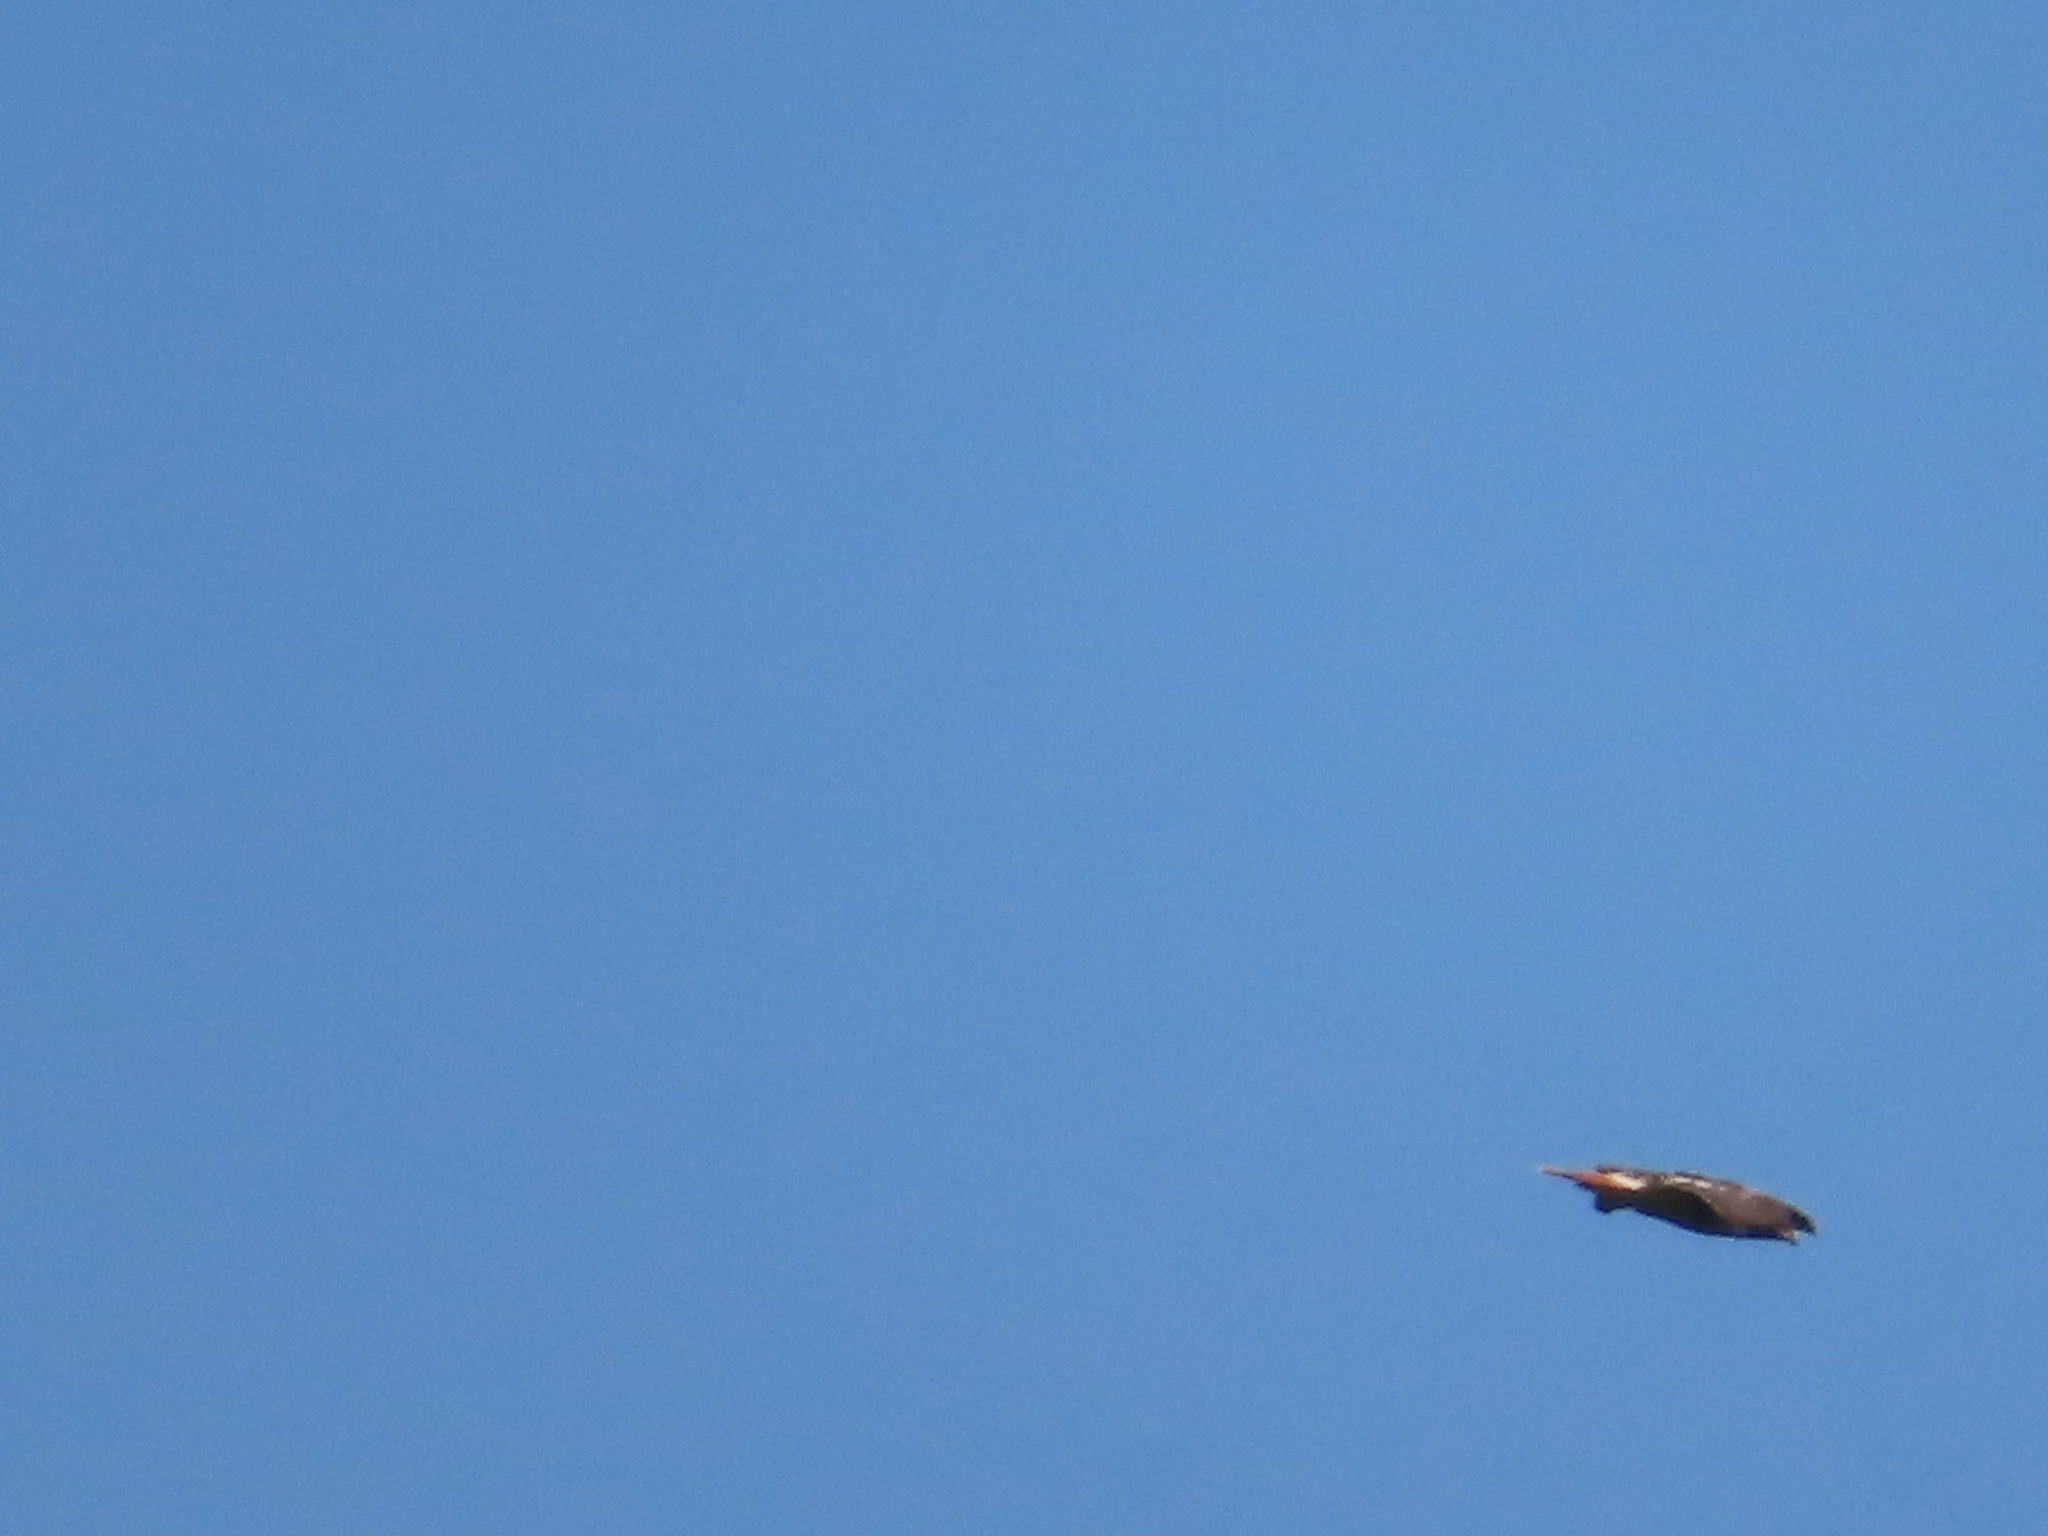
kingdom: Animalia
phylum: Chordata
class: Aves
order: Accipitriformes
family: Accipitridae
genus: Buteo
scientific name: Buteo jamaicensis
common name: Red-tailed hawk
